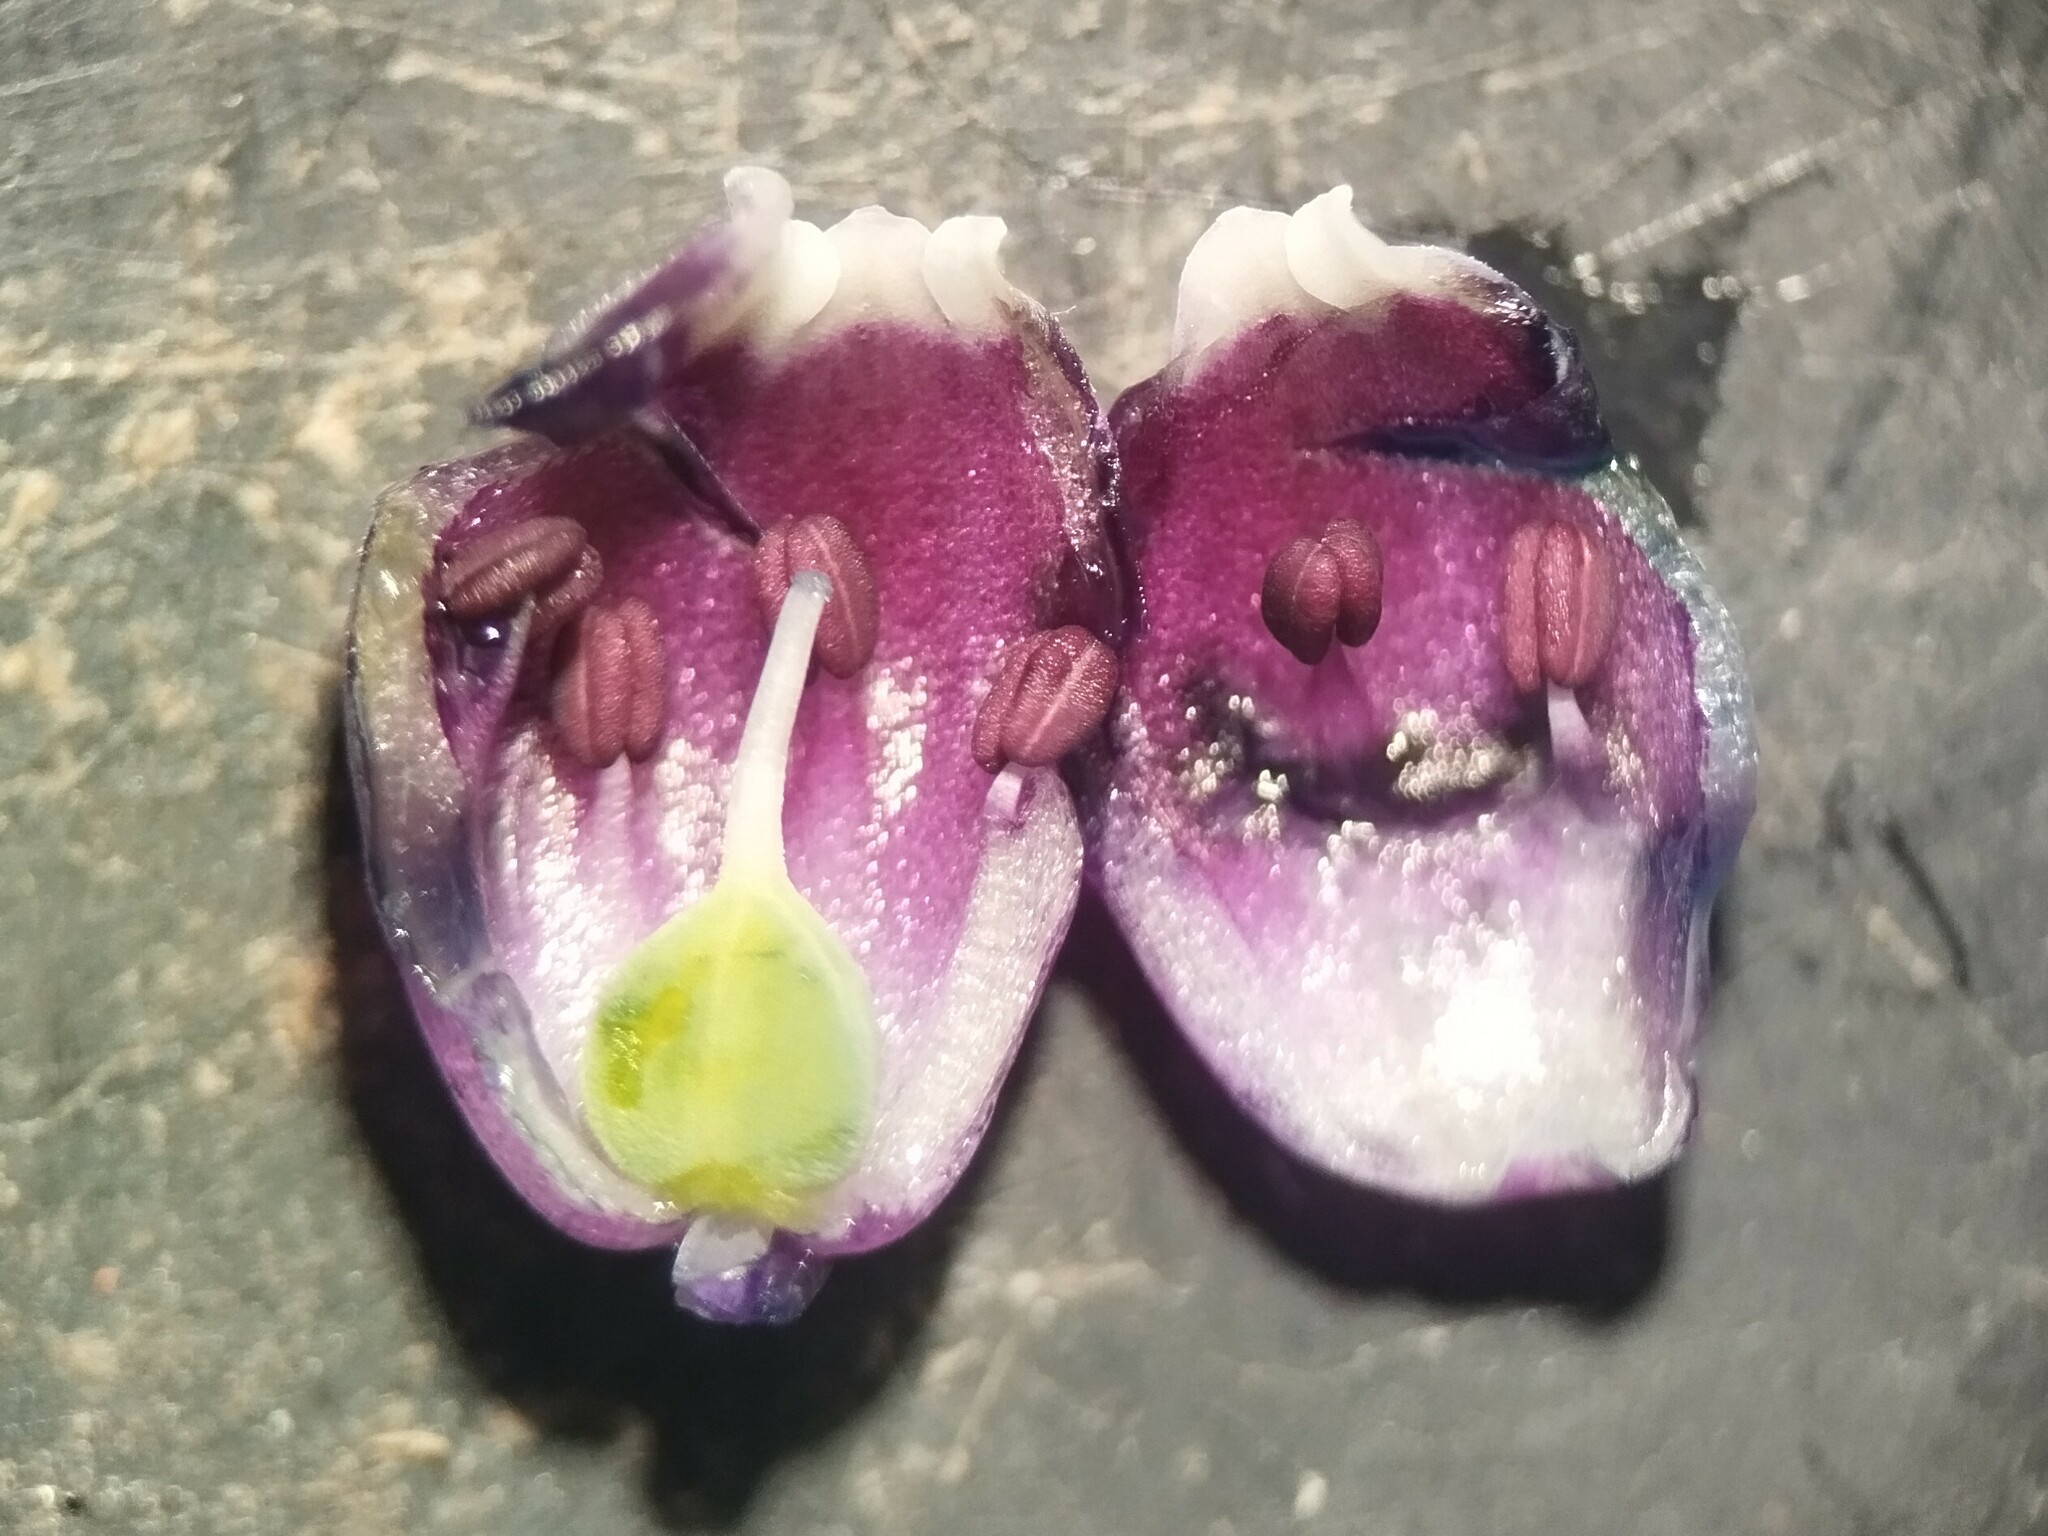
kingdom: Plantae
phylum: Tracheophyta
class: Liliopsida
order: Asparagales
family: Asparagaceae
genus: Muscari
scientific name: Muscari baeticum
